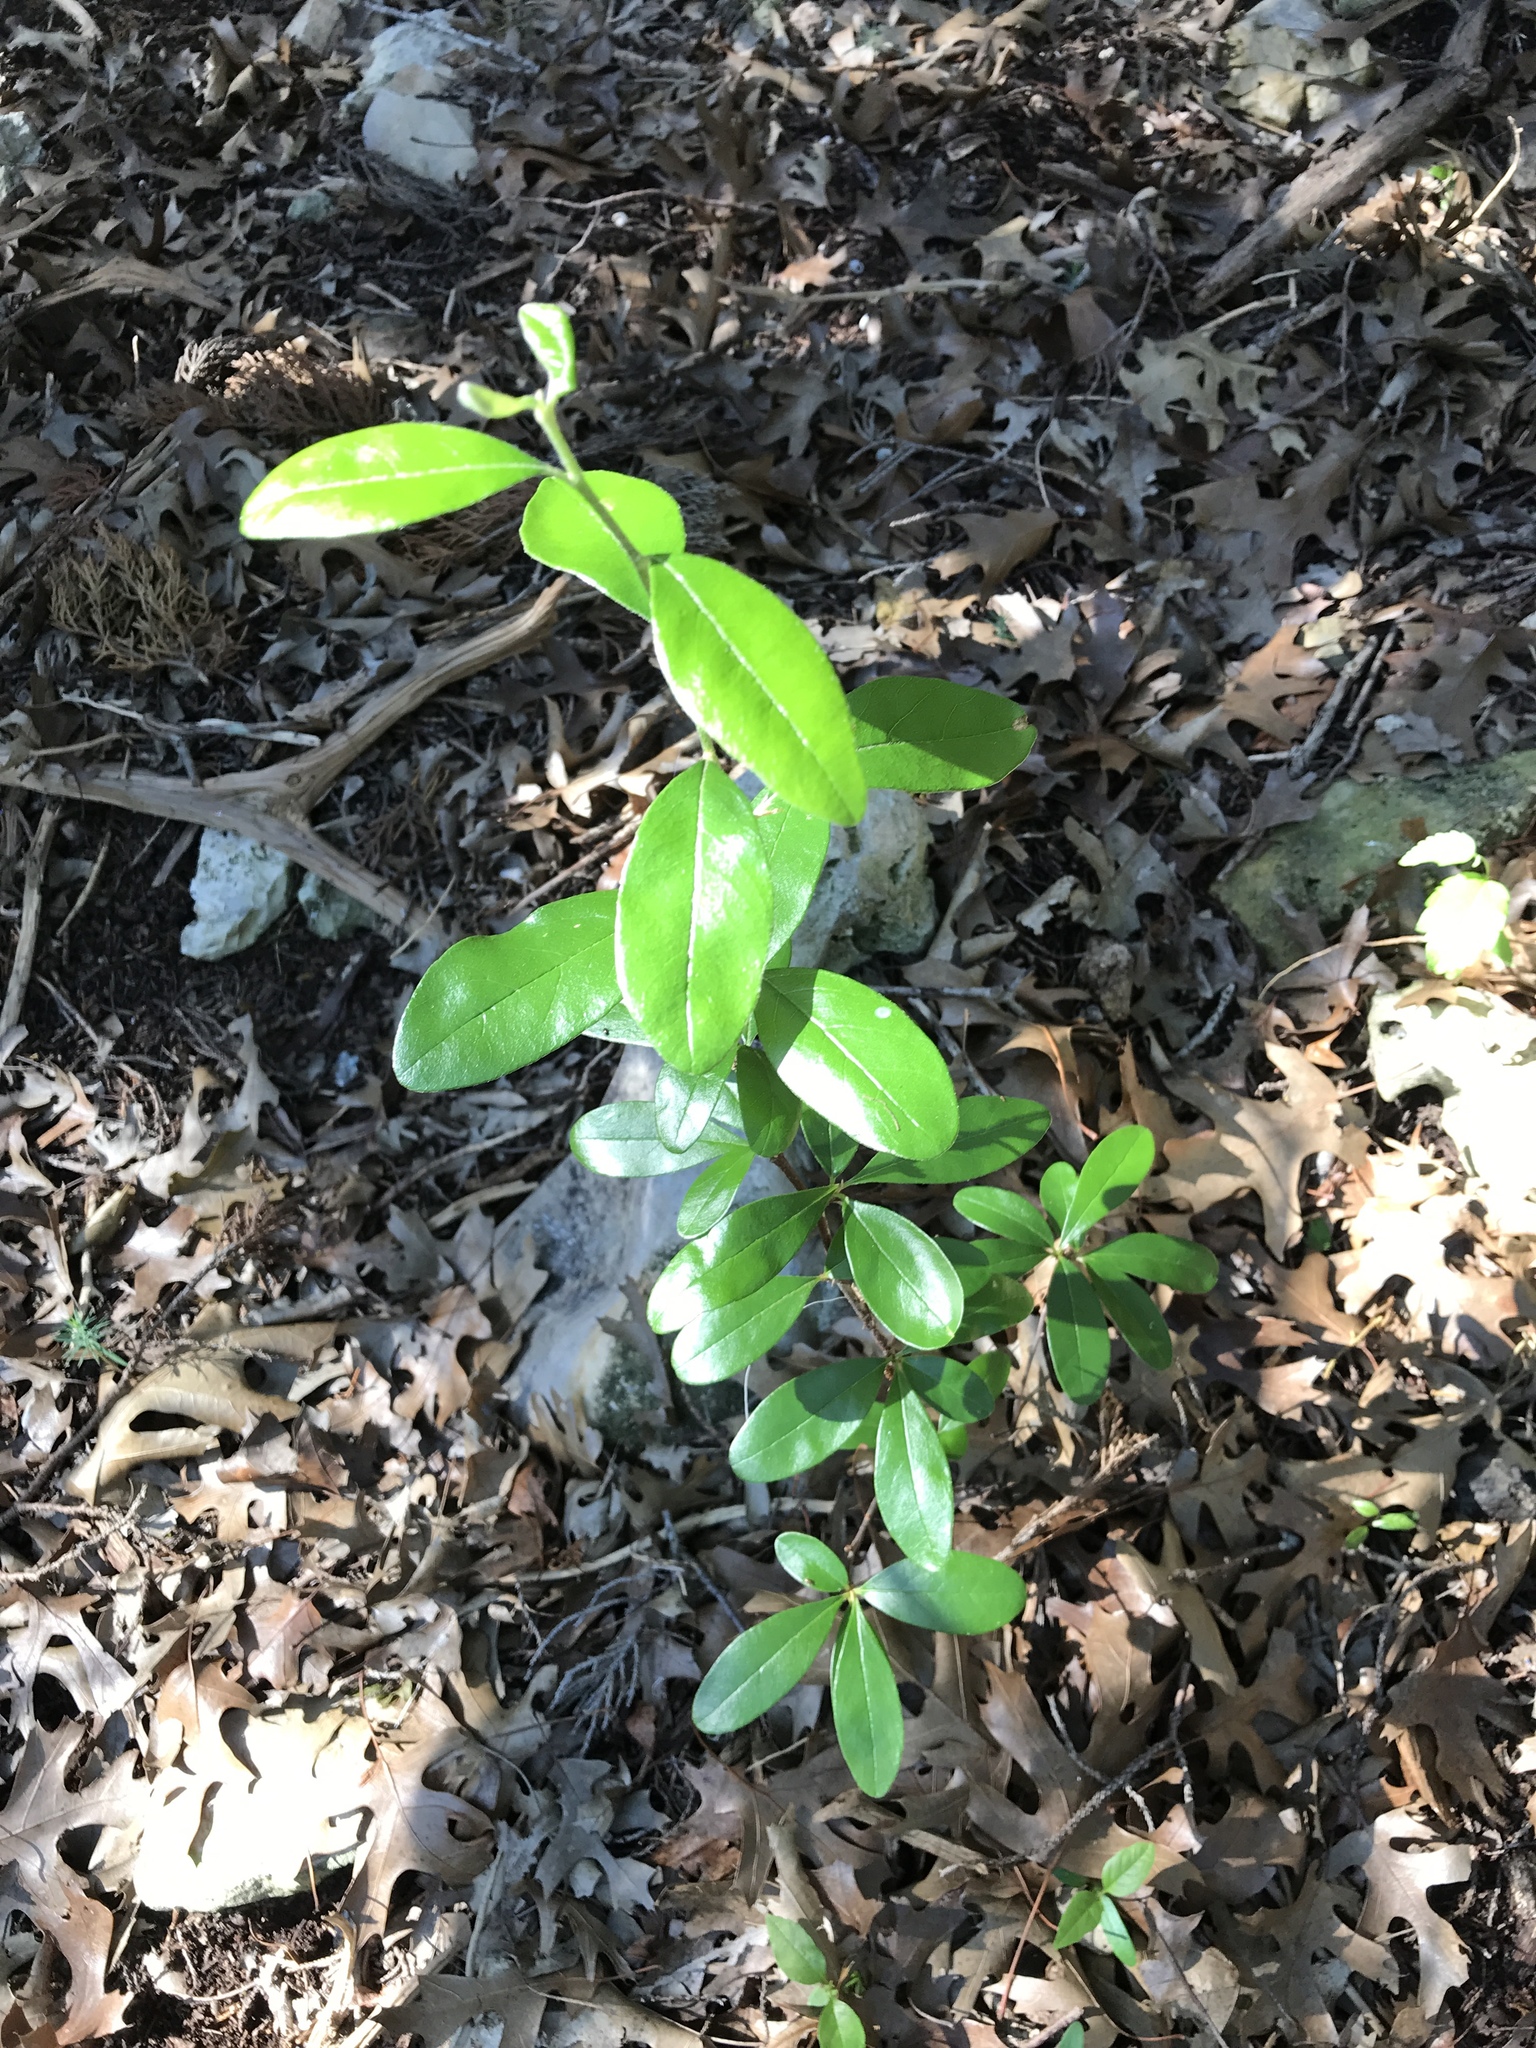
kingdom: Plantae
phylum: Tracheophyta
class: Magnoliopsida
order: Ericales
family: Sapotaceae
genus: Sideroxylon
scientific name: Sideroxylon lanuginosum
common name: Chittamwood
